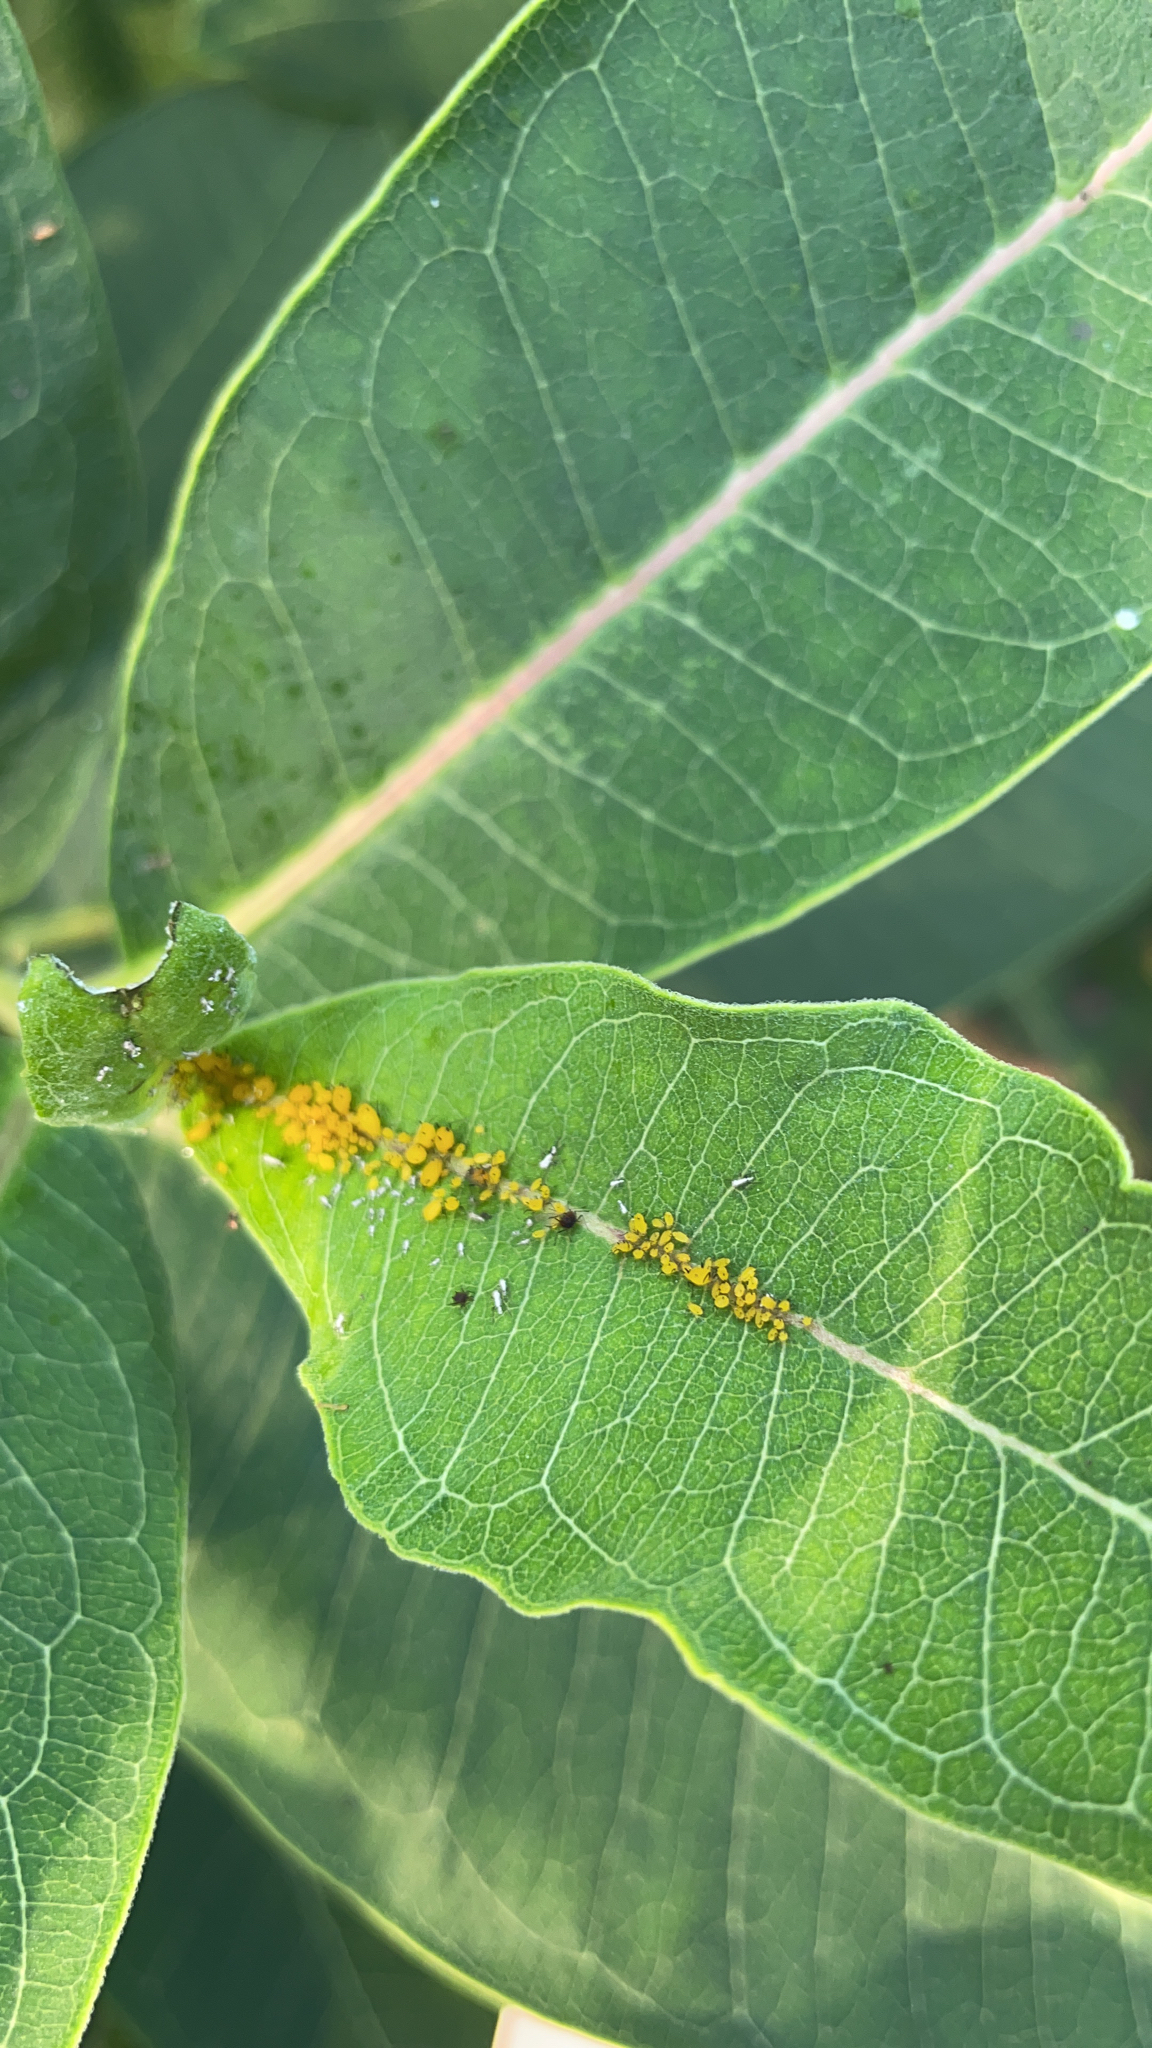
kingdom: Animalia
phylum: Arthropoda
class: Insecta
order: Hemiptera
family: Aphididae
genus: Aphis
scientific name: Aphis nerii
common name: Oleander aphid
